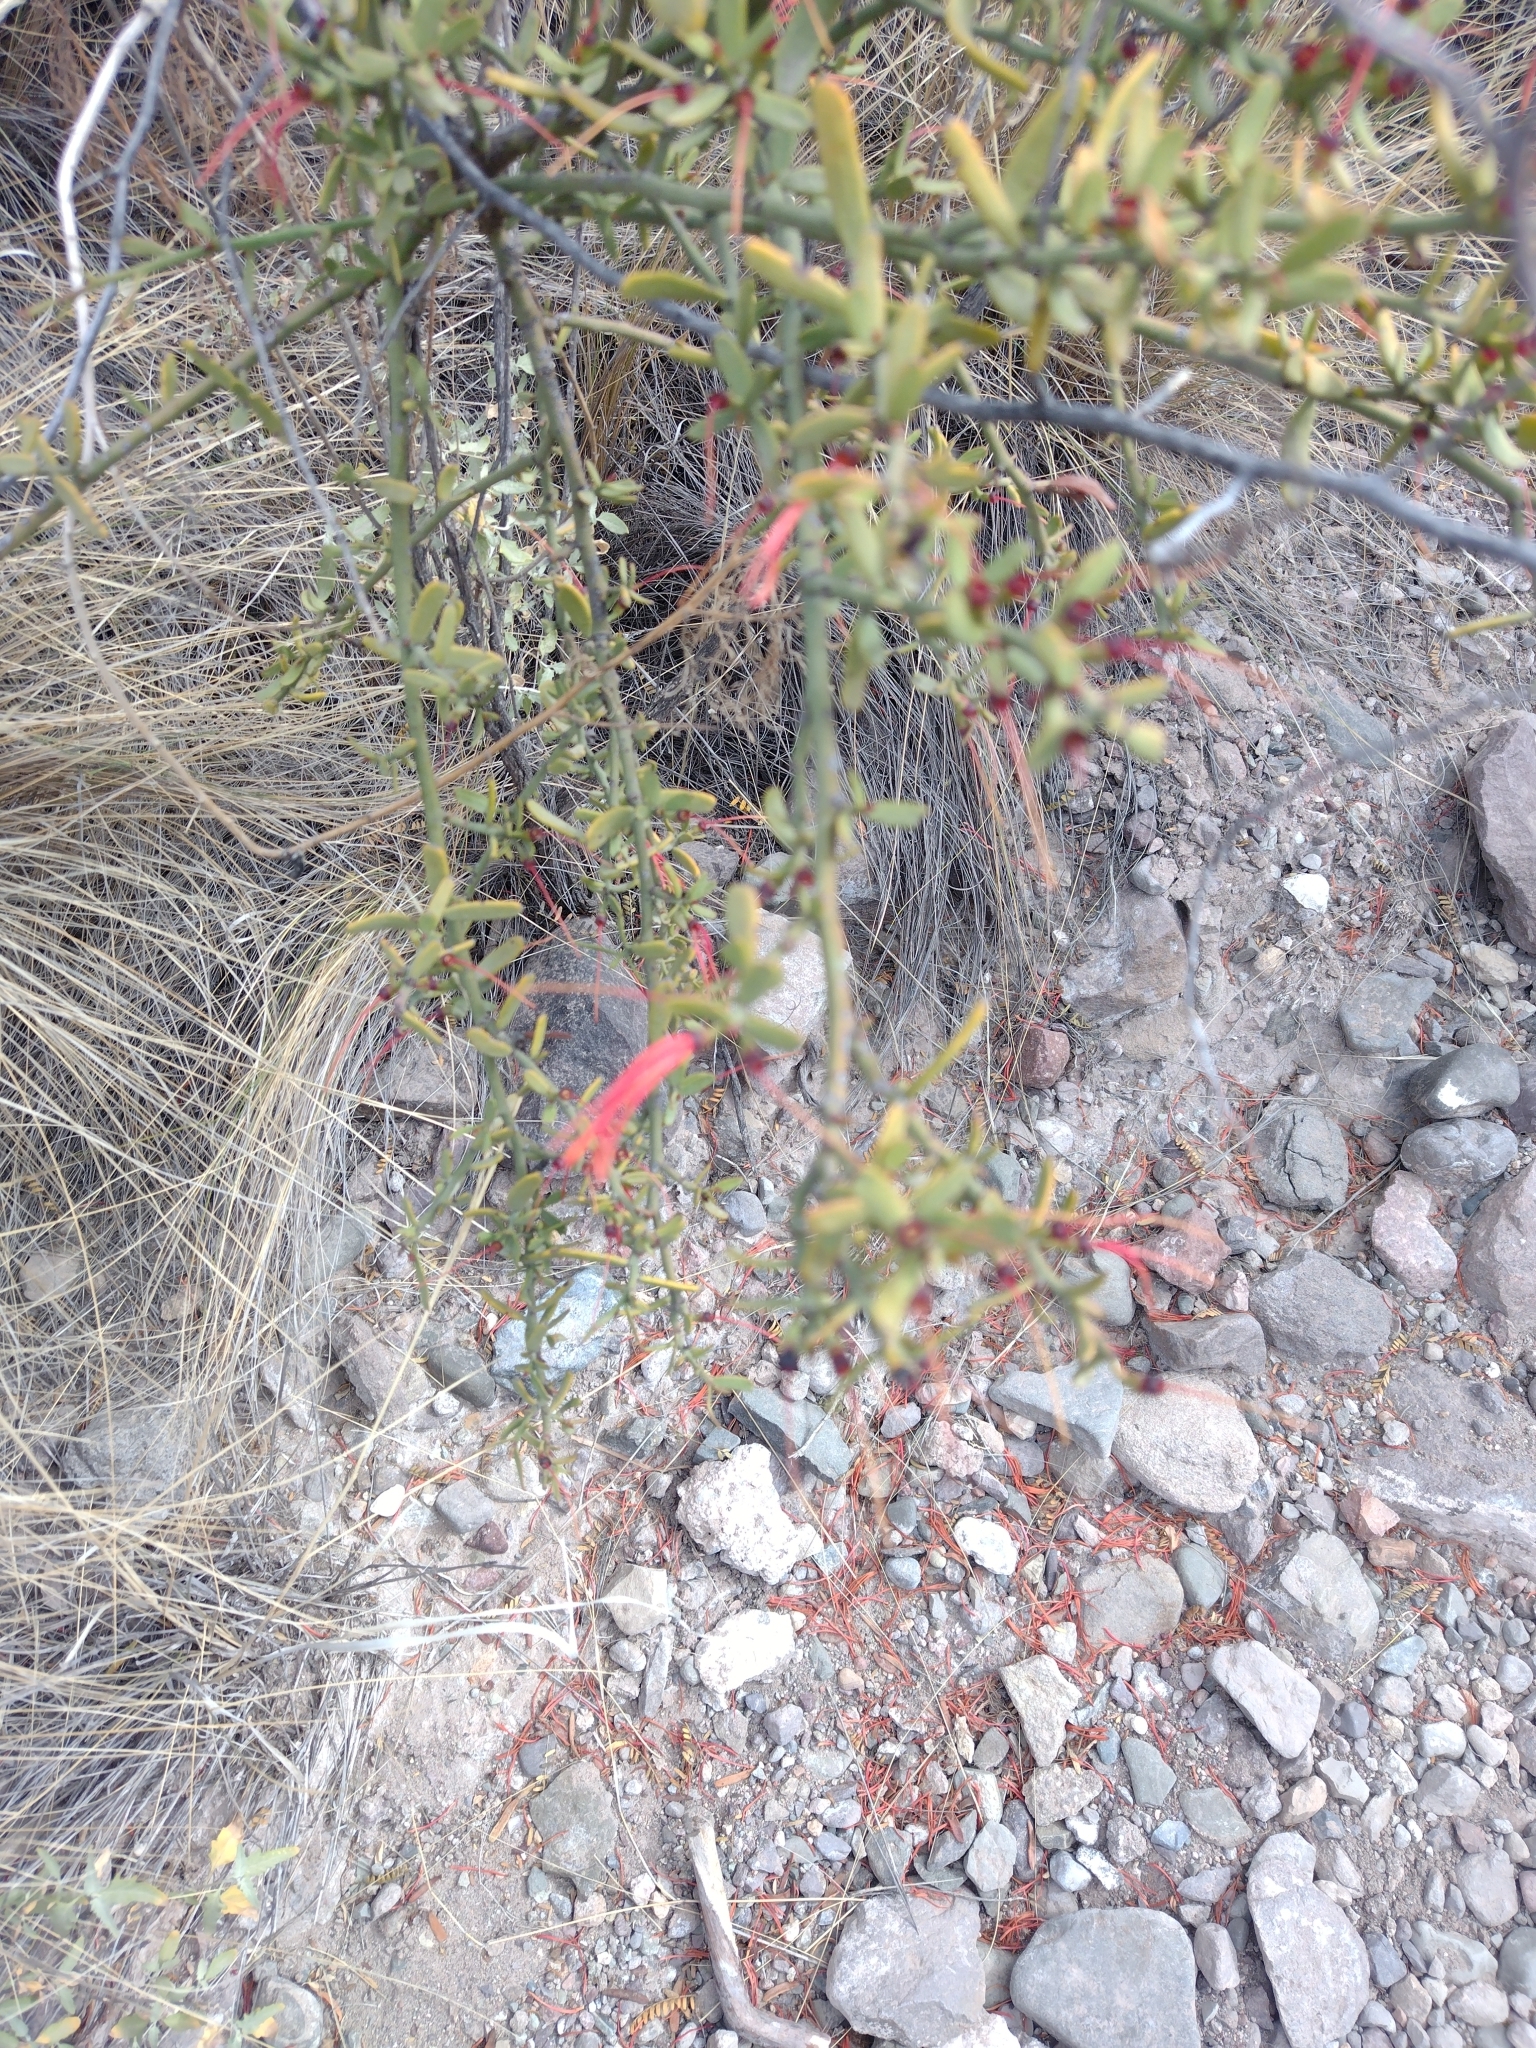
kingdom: Plantae
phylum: Tracheophyta
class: Magnoliopsida
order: Santalales
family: Loranthaceae
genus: Ligaria
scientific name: Ligaria cuneifolia
